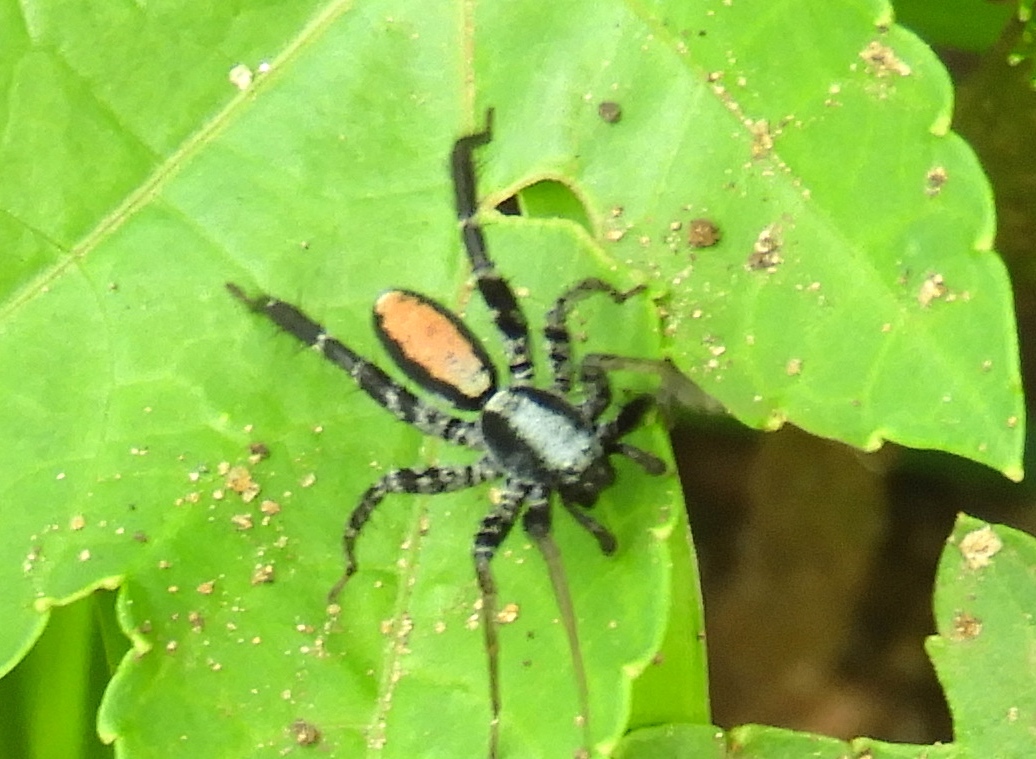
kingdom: Animalia
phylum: Arthropoda
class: Arachnida
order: Araneae
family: Corinnidae
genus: Castianeira
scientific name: Castianeira
